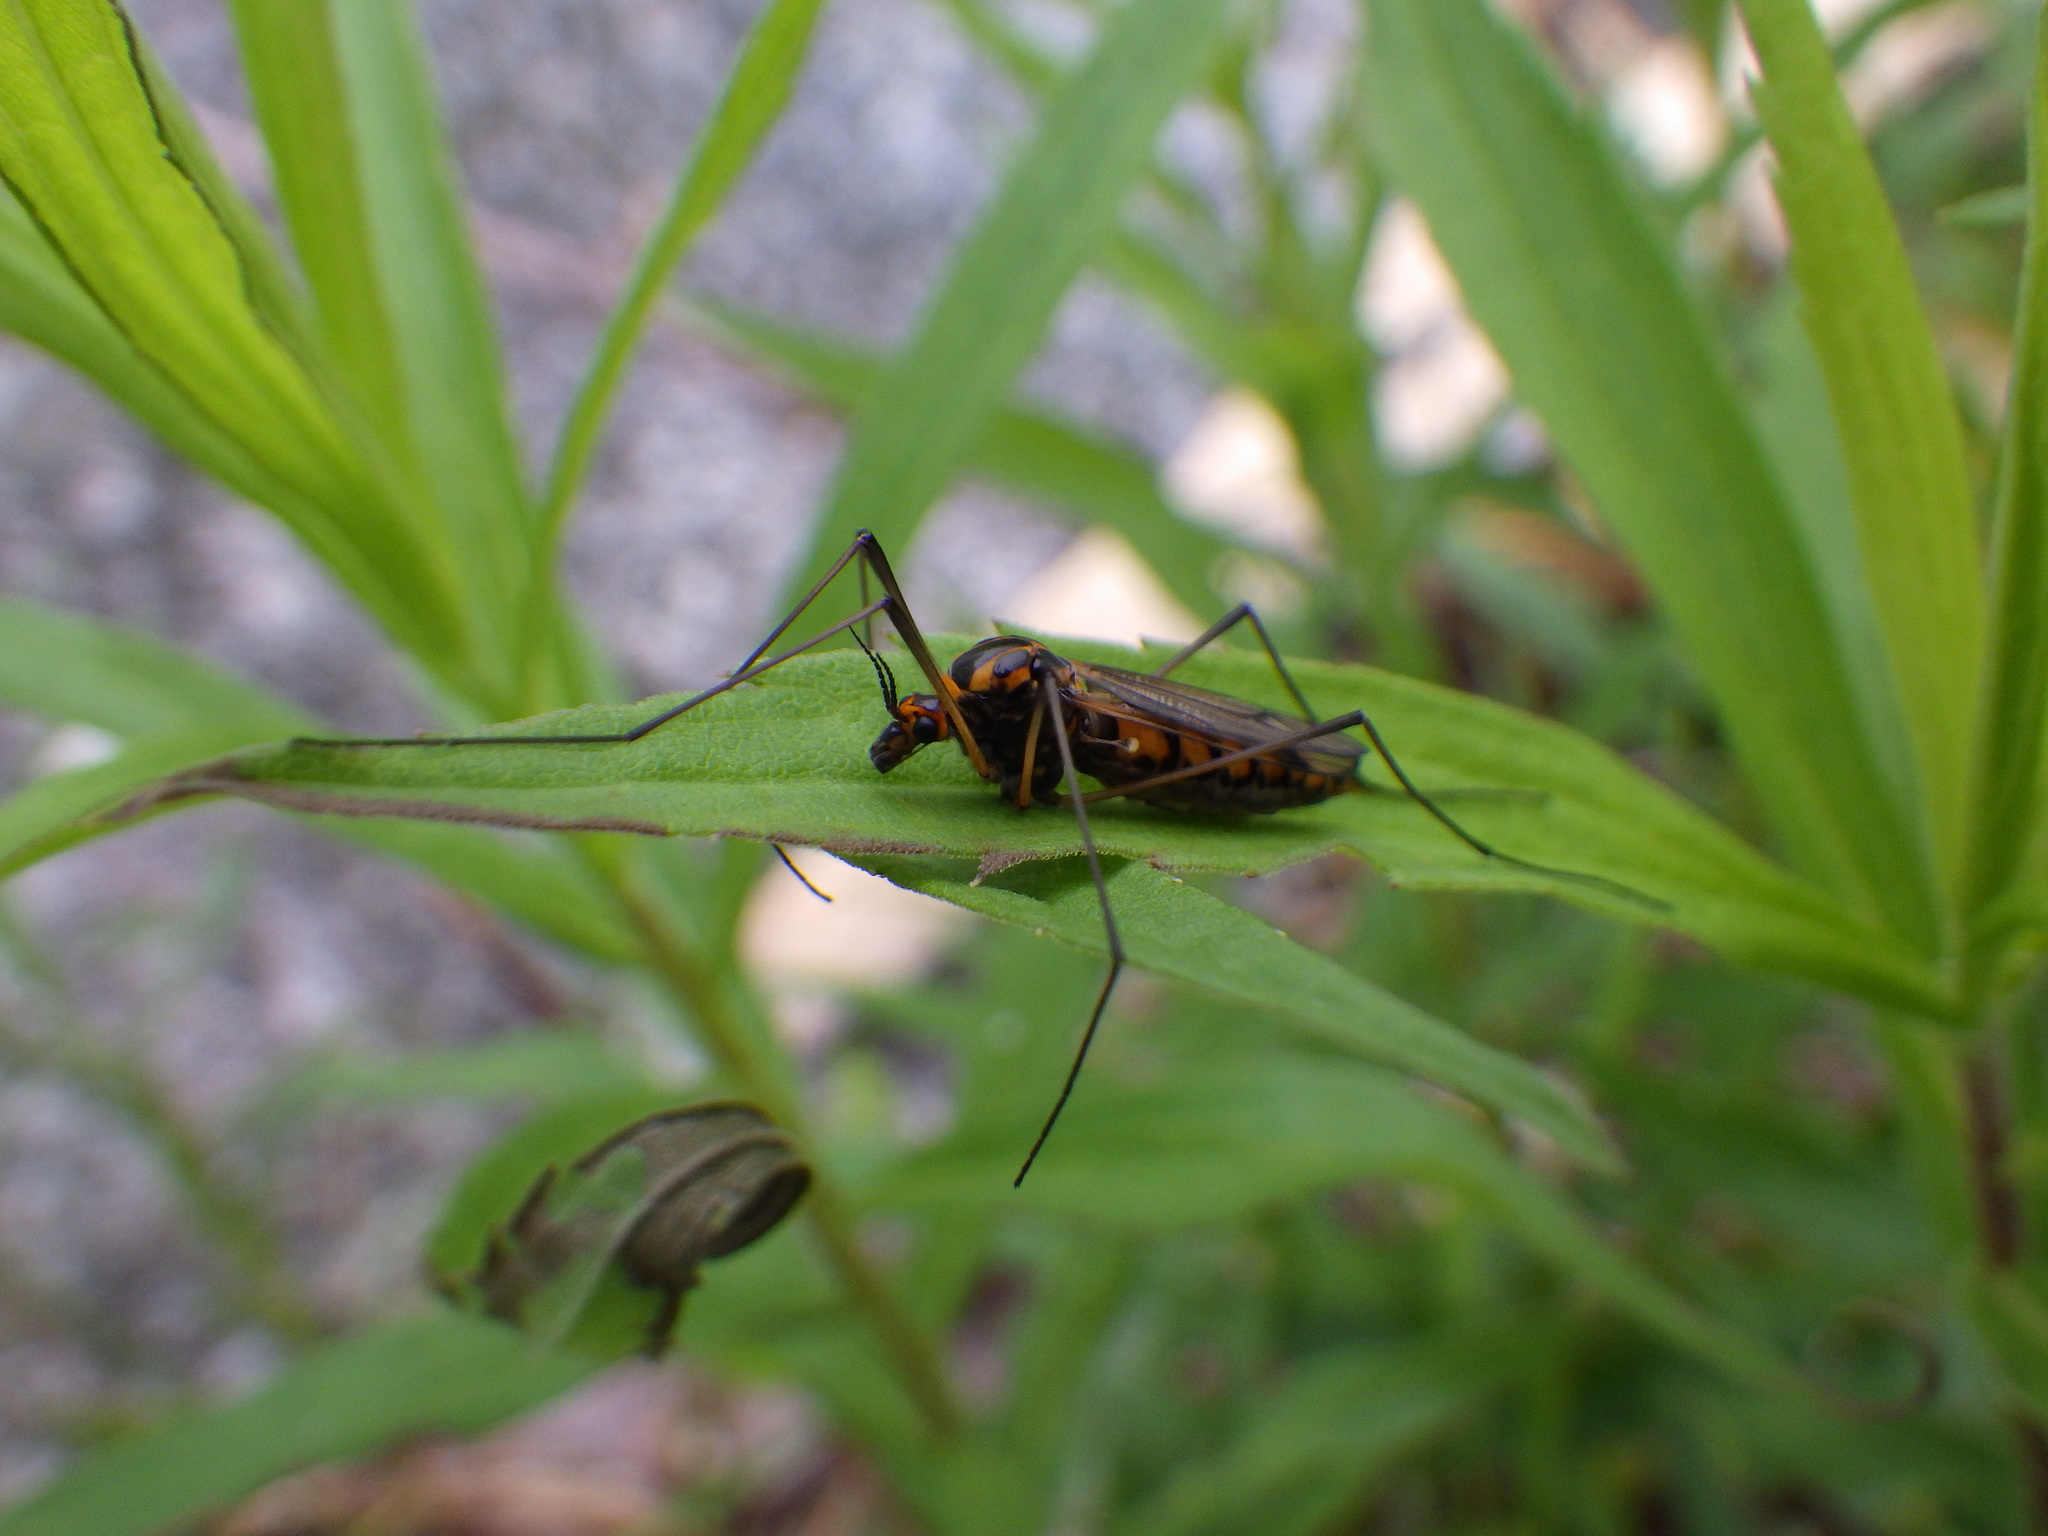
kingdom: Animalia
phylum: Arthropoda
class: Insecta
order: Diptera
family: Tipulidae
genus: Nephrotoma
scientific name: Nephrotoma pedunculata
